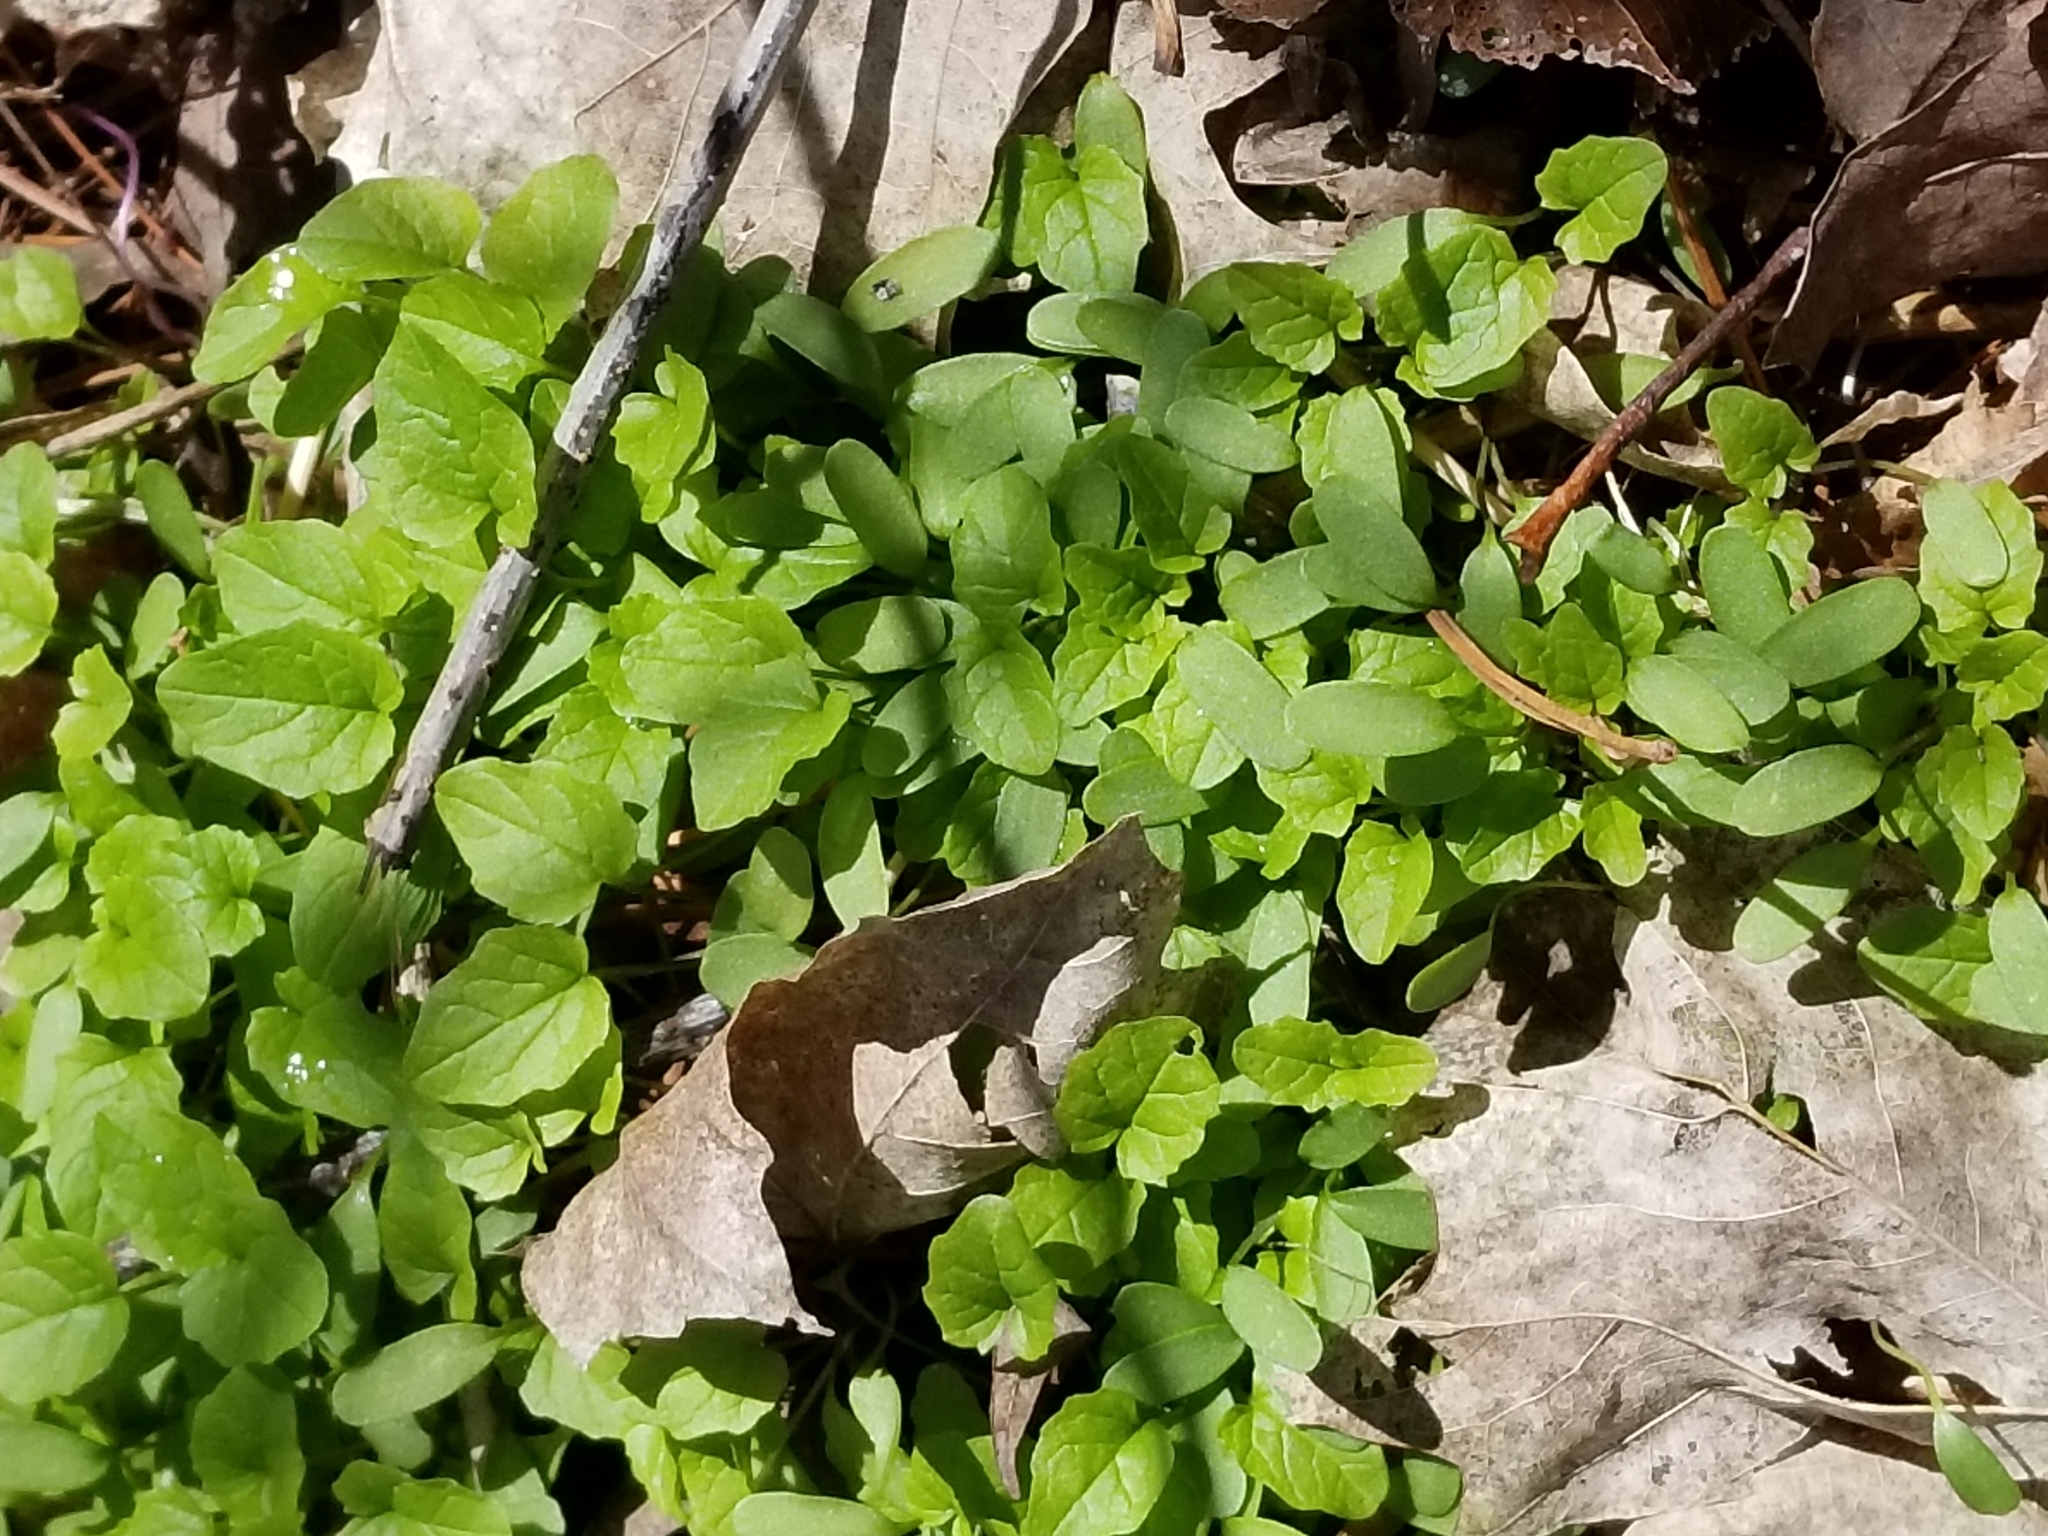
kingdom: Plantae
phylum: Tracheophyta
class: Magnoliopsida
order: Brassicales
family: Brassicaceae
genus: Alliaria
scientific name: Alliaria petiolata
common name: Garlic mustard
